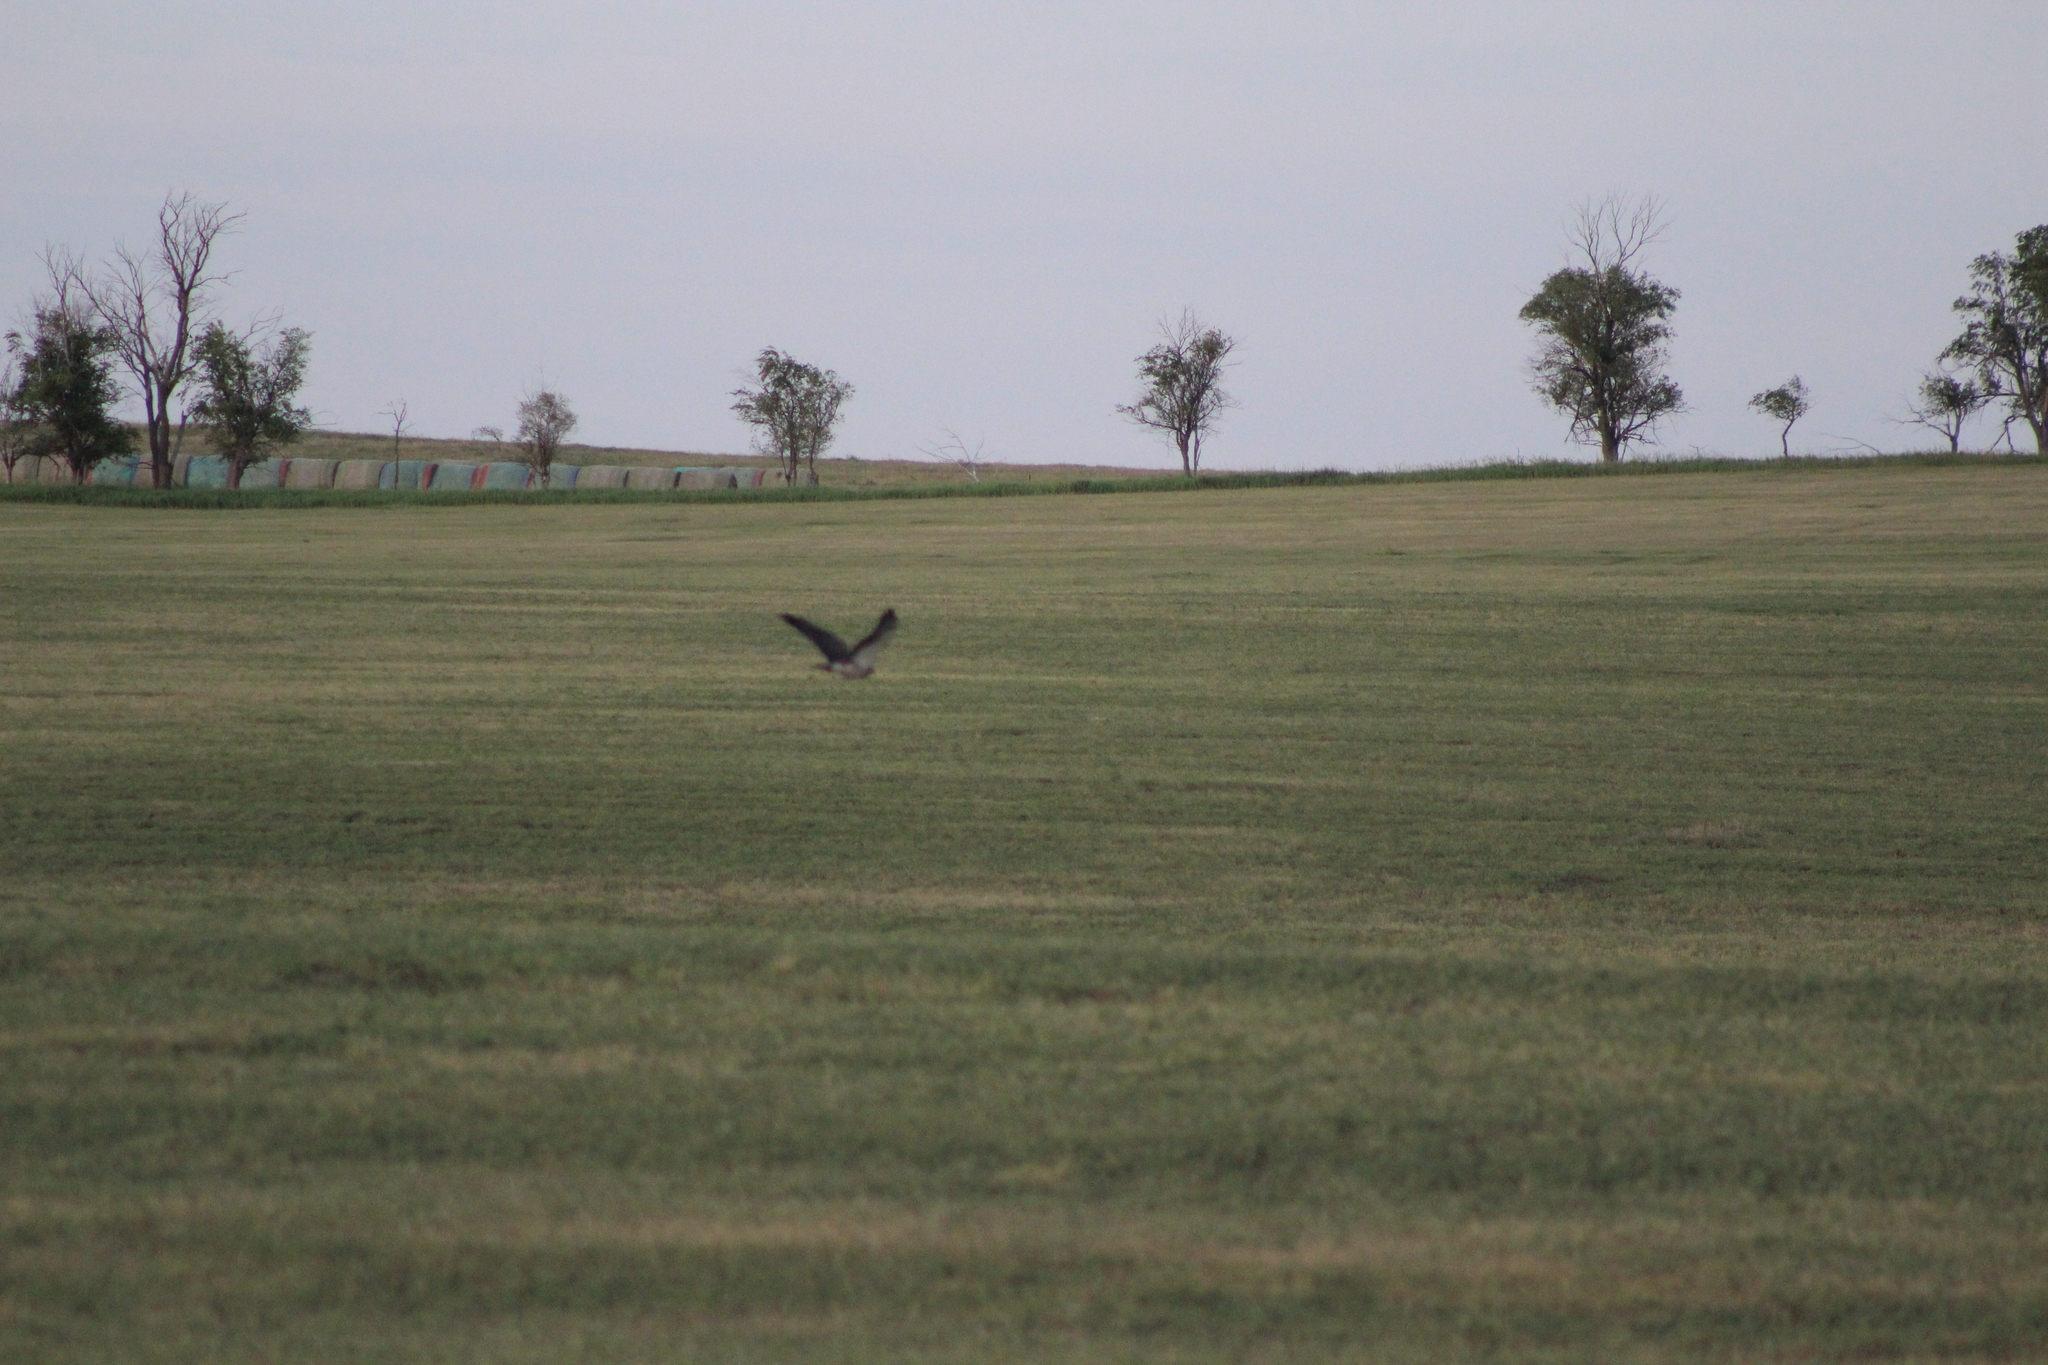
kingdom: Animalia
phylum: Chordata
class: Aves
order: Accipitriformes
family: Accipitridae
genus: Buteo
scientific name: Buteo swainsoni
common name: Swainson's hawk
